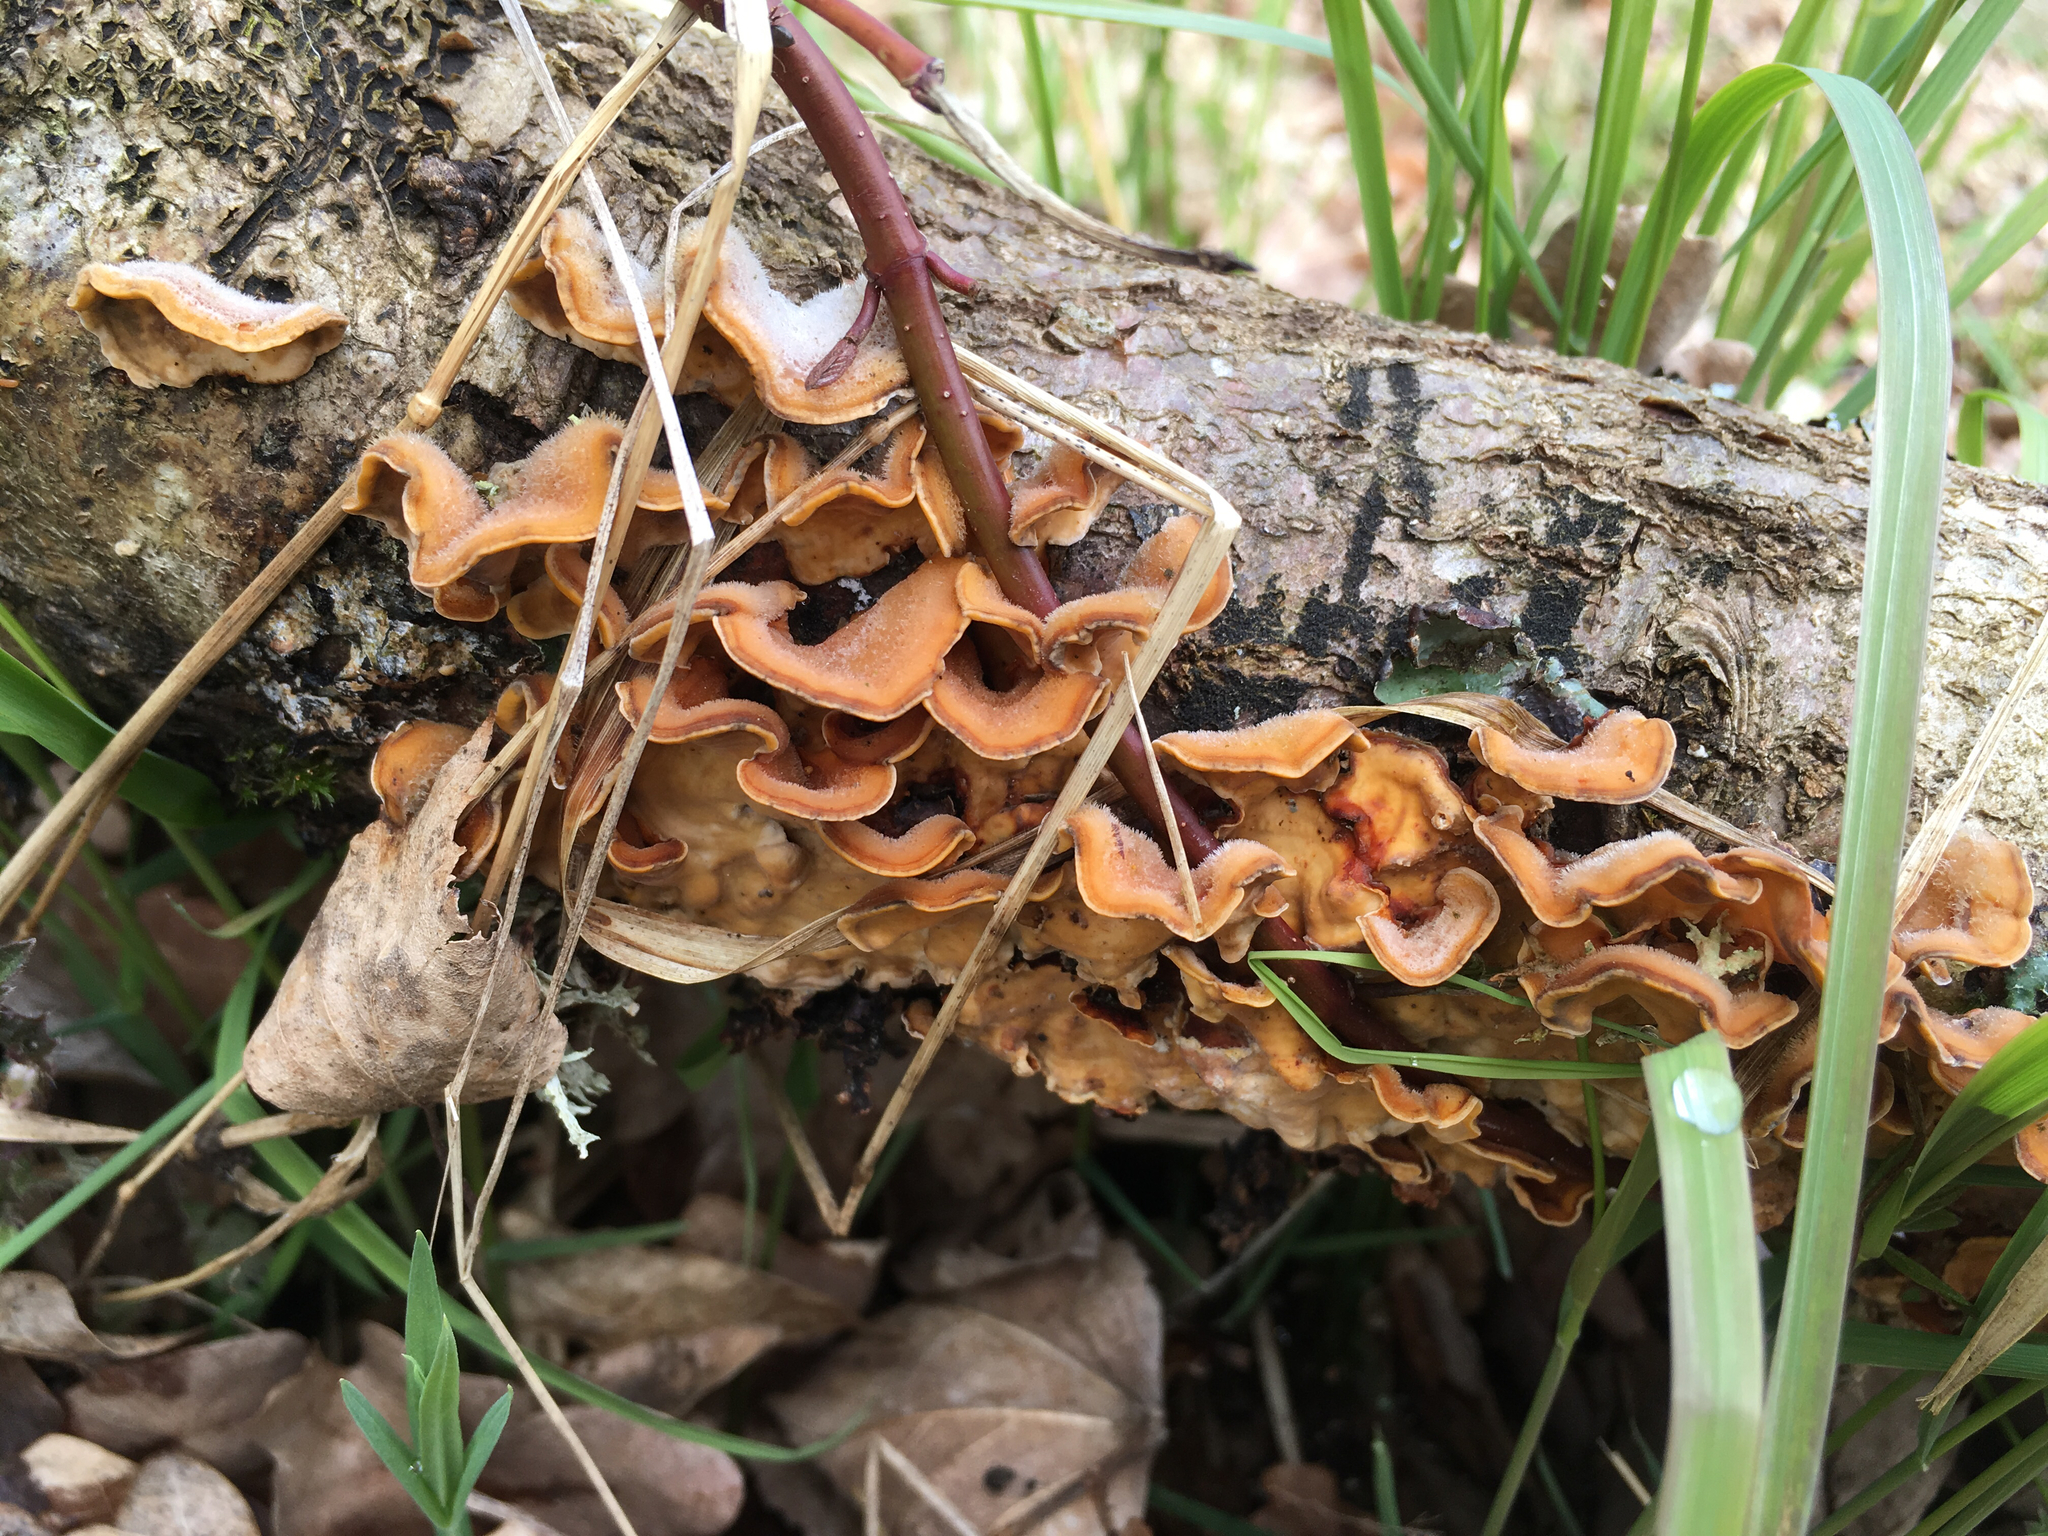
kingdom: Fungi
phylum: Basidiomycota
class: Agaricomycetes
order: Russulales
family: Stereaceae
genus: Stereum
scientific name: Stereum hirsutum
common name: Hairy curtain crust
